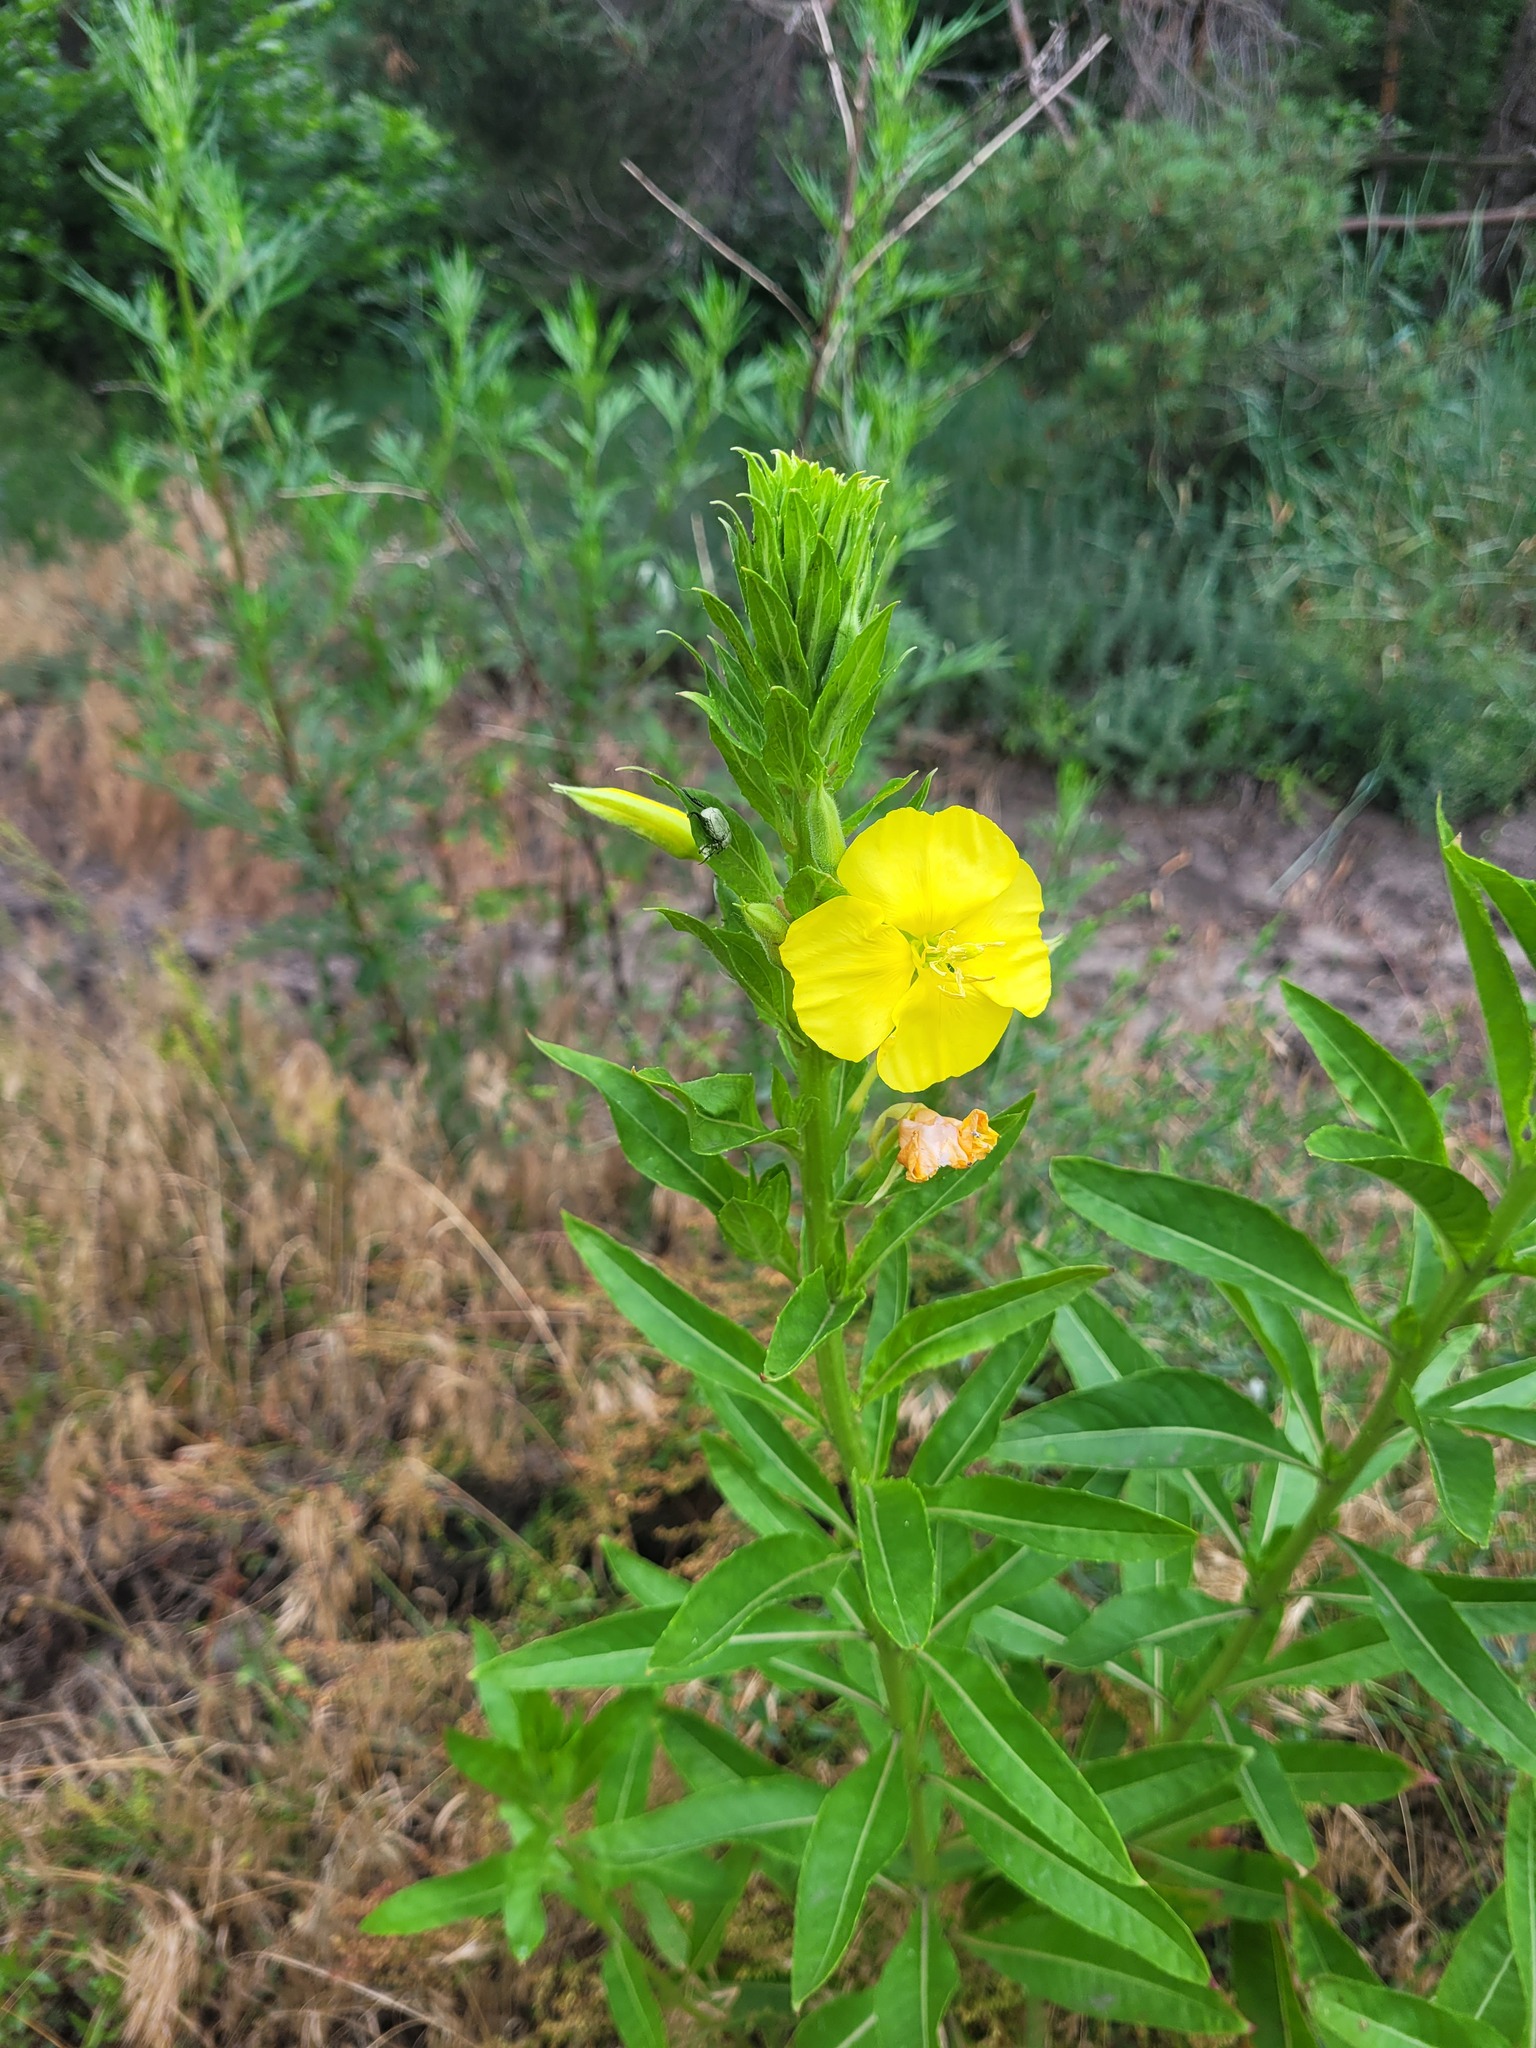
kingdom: Plantae
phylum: Tracheophyta
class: Magnoliopsida
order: Myrtales
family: Onagraceae
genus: Oenothera
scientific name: Oenothera biennis
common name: Common evening-primrose
